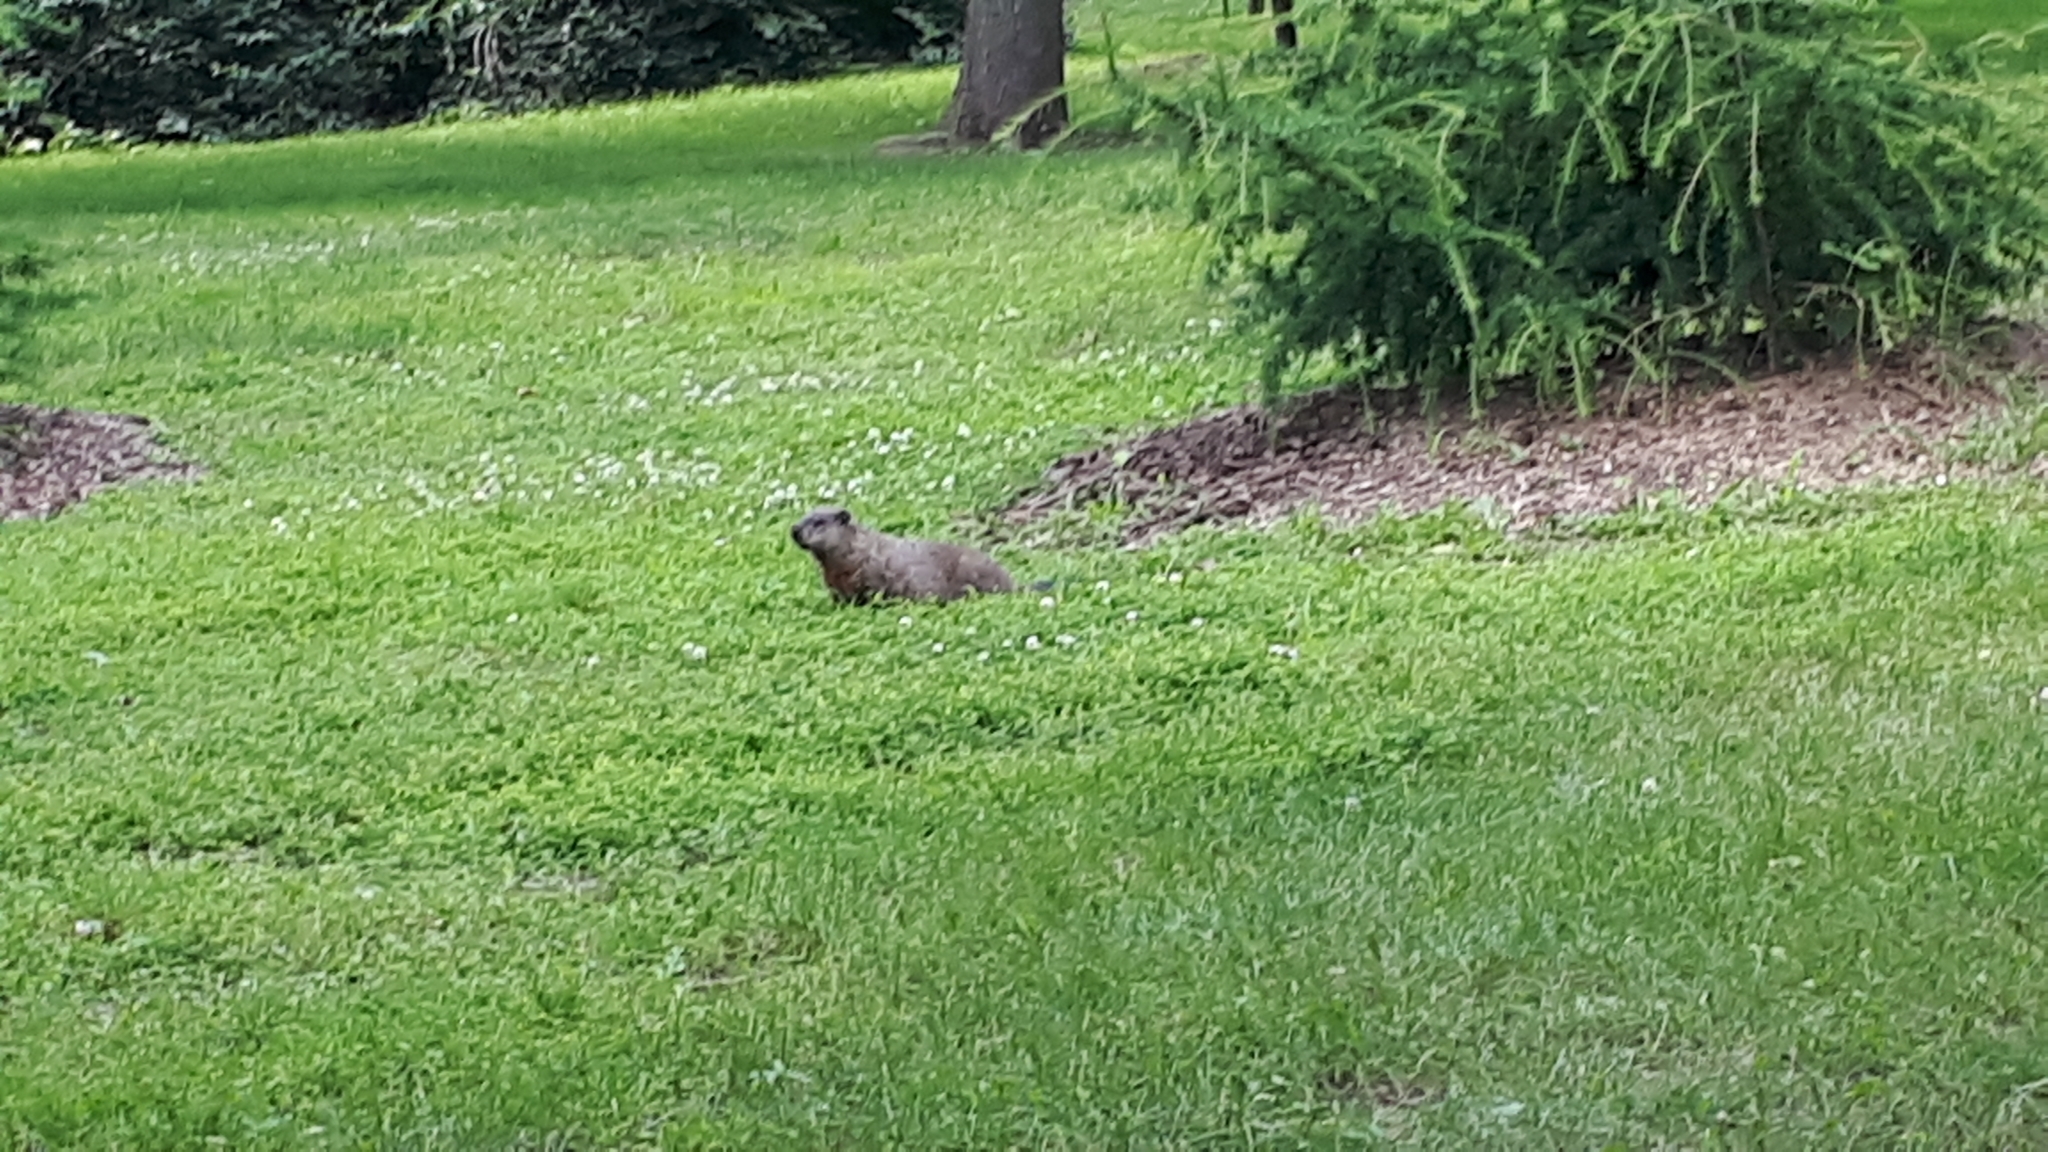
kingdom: Animalia
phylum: Chordata
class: Mammalia
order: Rodentia
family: Sciuridae
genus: Marmota
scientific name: Marmota monax
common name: Groundhog
